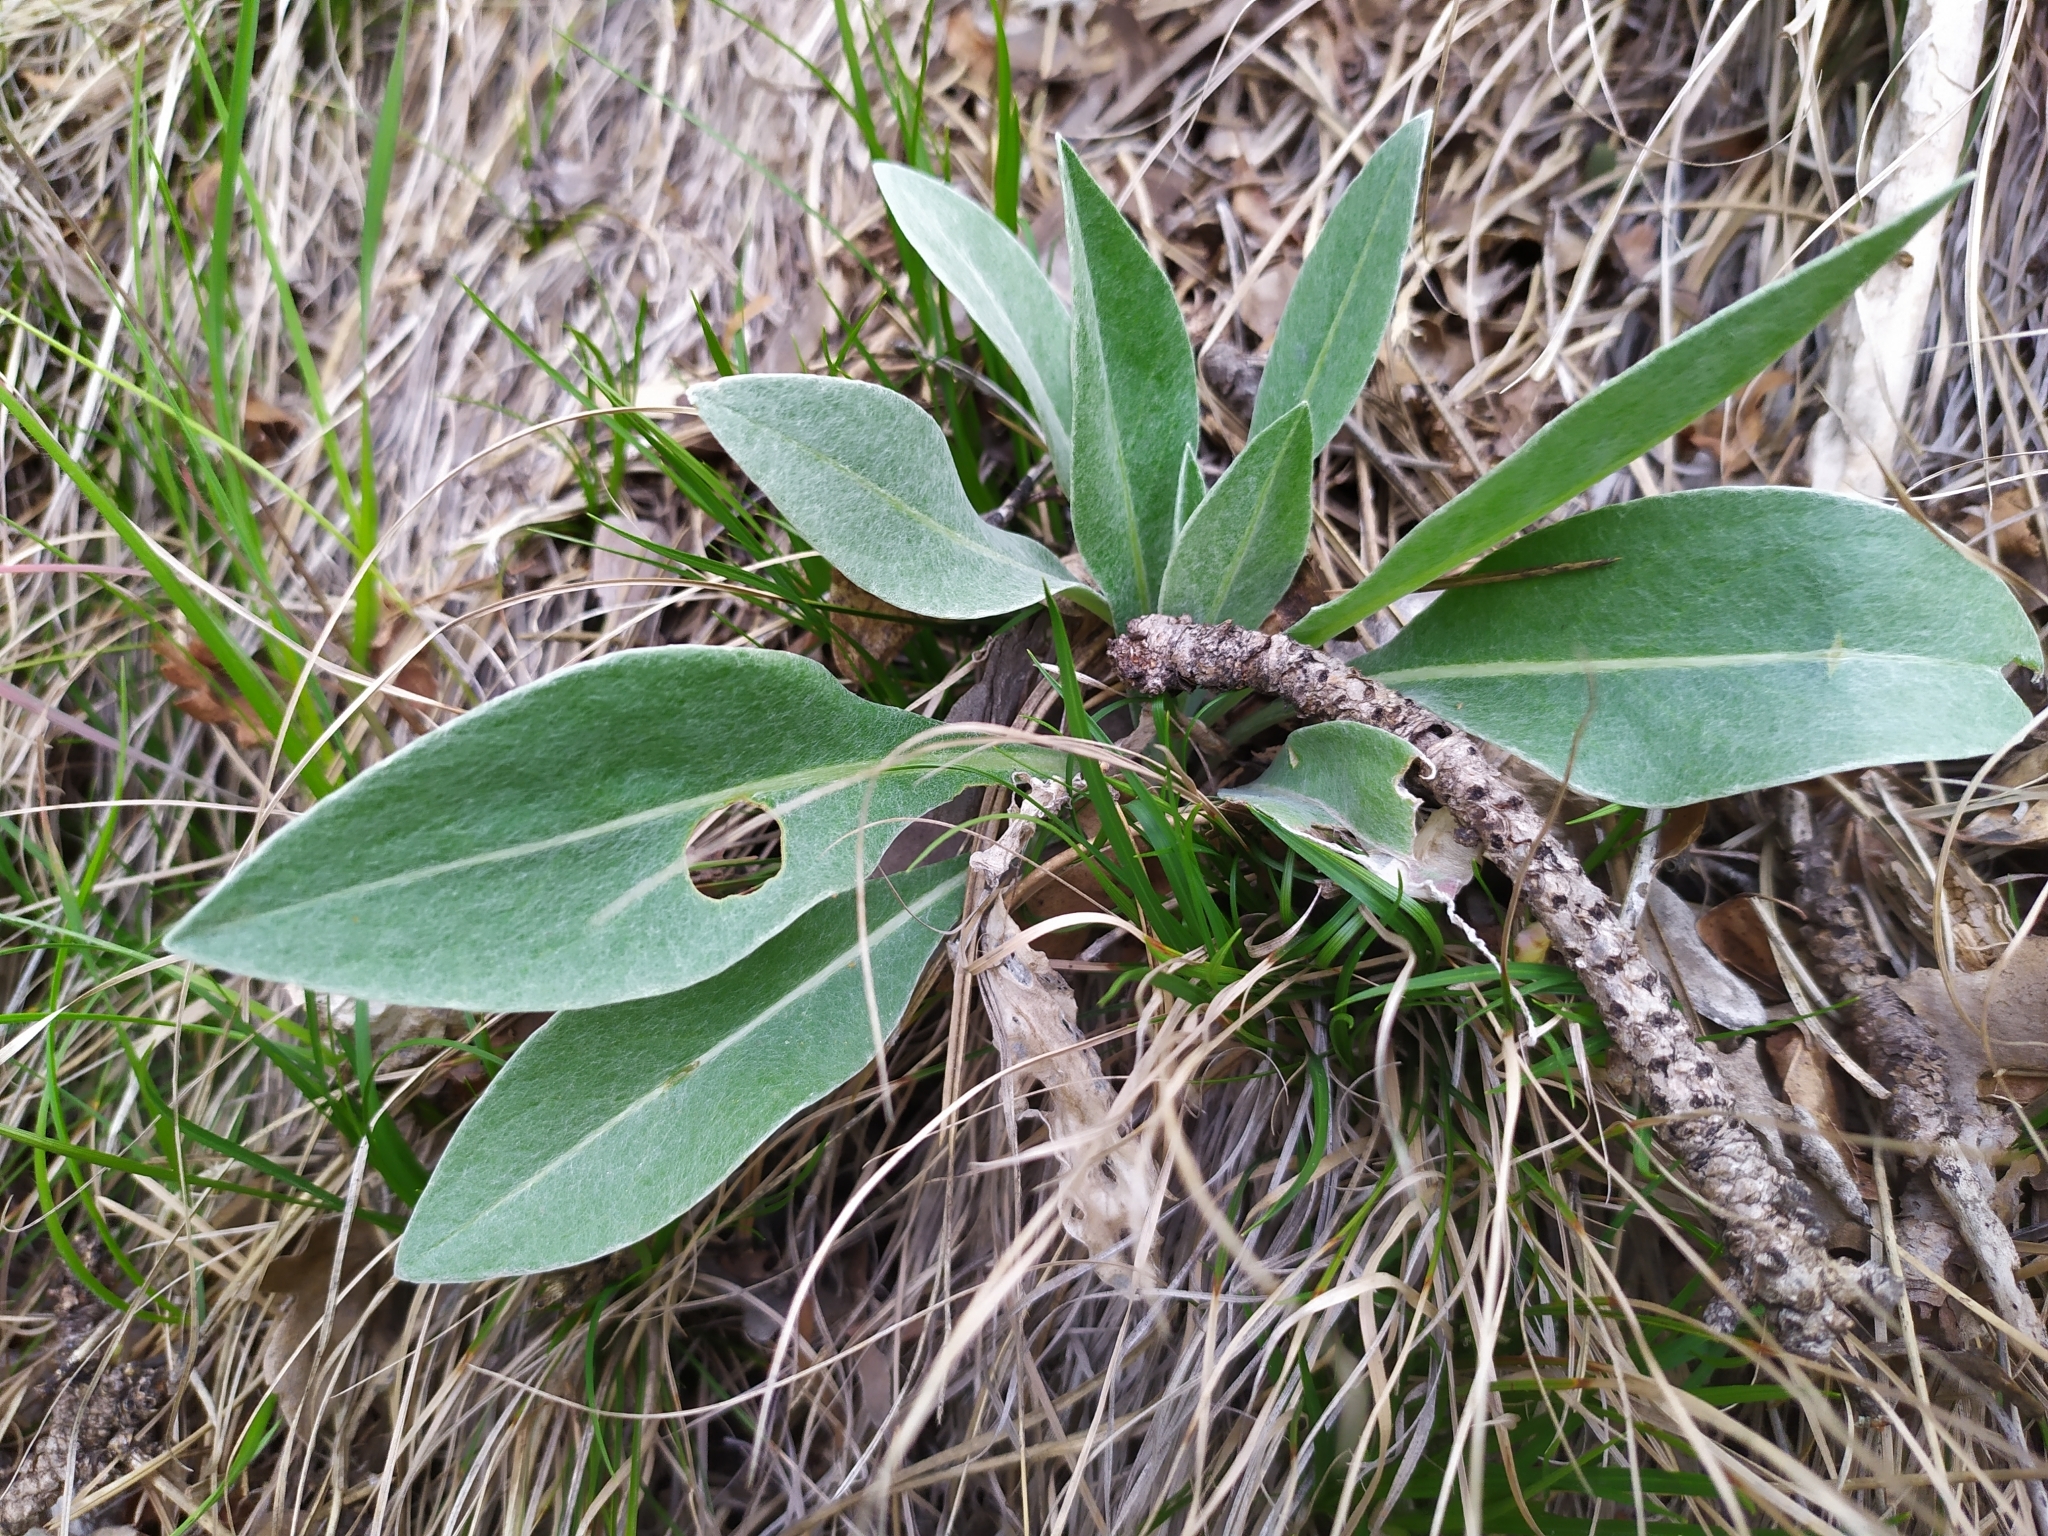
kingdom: Plantae
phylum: Tracheophyta
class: Magnoliopsida
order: Asterales
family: Asteraceae
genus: Centaurea
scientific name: Centaurea triumfettii
